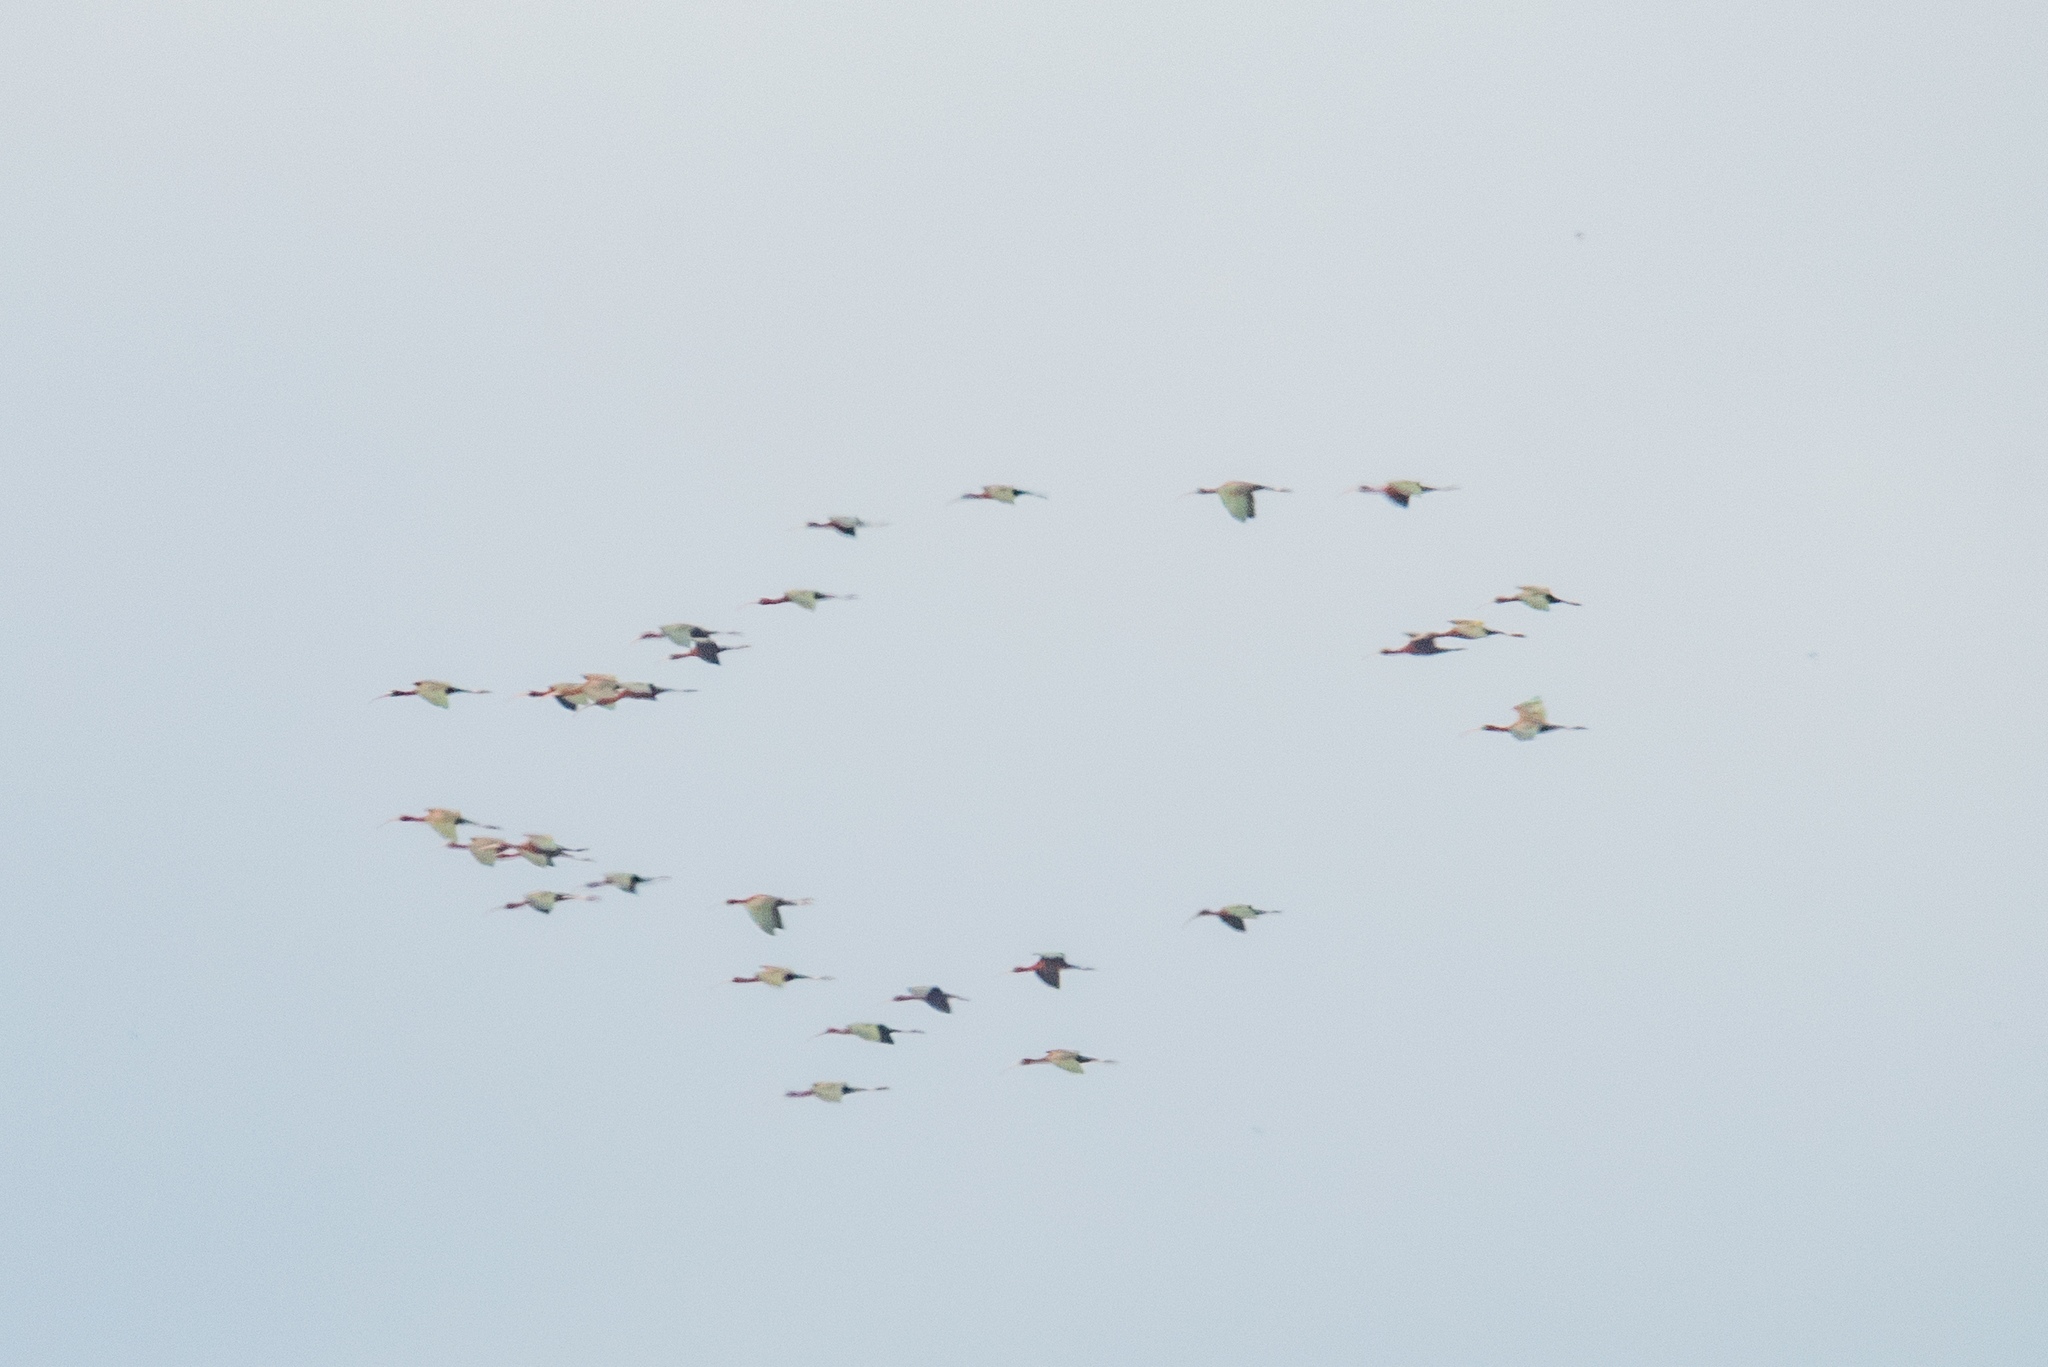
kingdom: Animalia
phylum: Chordata
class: Aves
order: Pelecaniformes
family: Threskiornithidae
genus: Plegadis
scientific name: Plegadis falcinellus
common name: Glossy ibis
